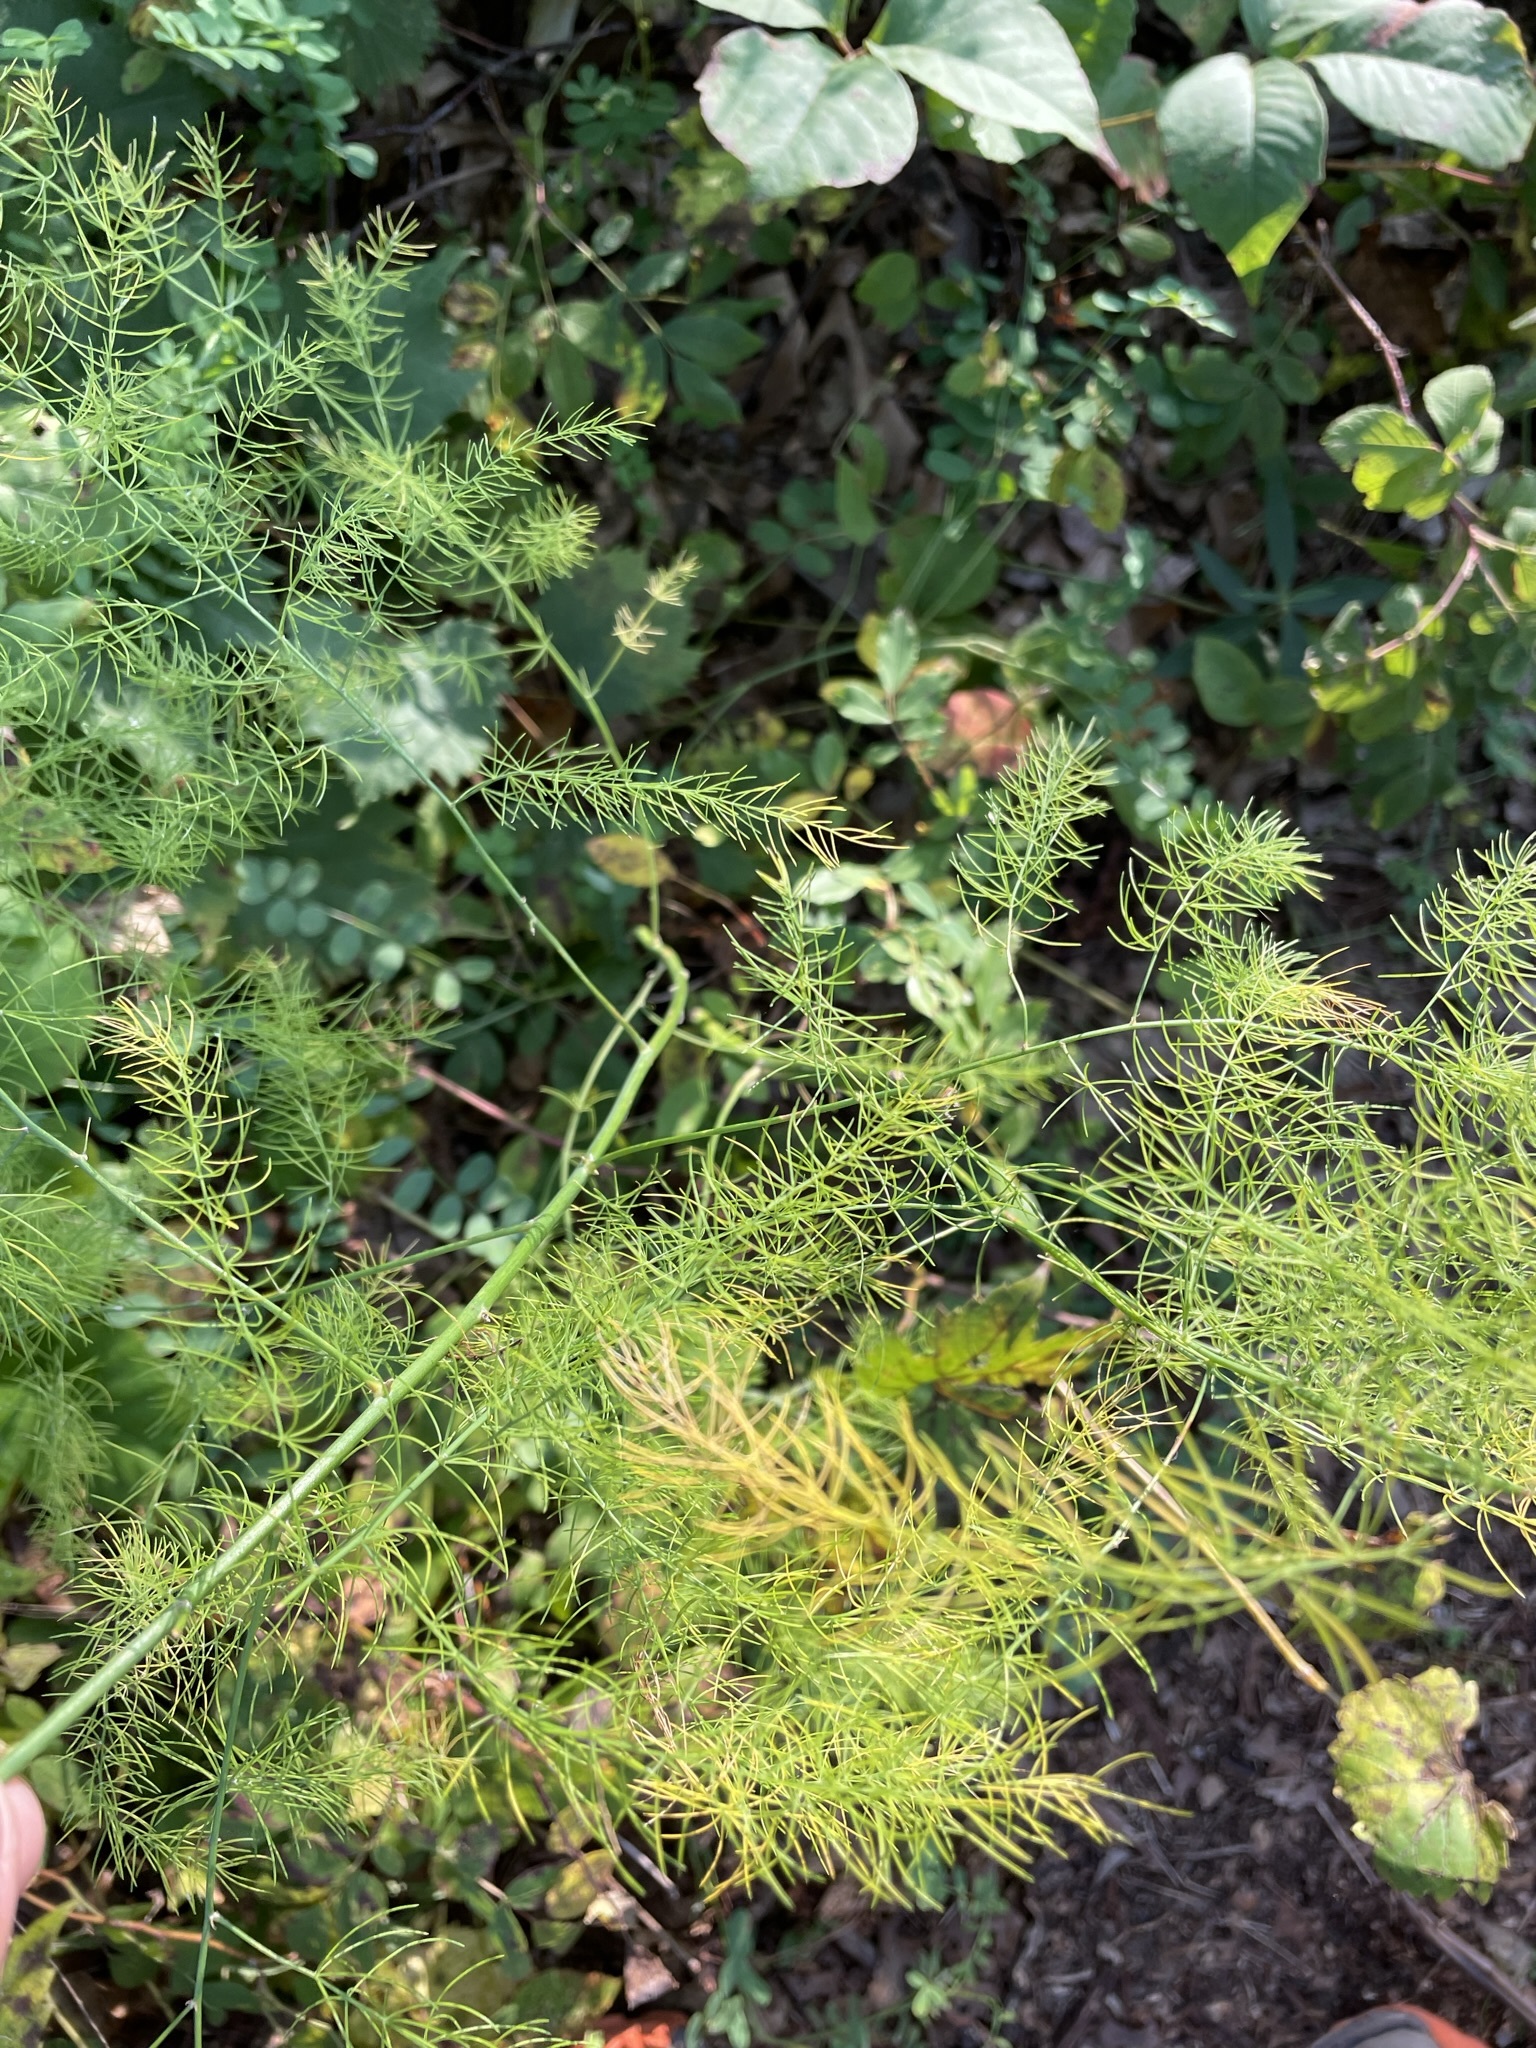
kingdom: Plantae
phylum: Tracheophyta
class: Liliopsida
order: Asparagales
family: Asparagaceae
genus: Asparagus
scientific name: Asparagus officinalis
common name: Garden asparagus
